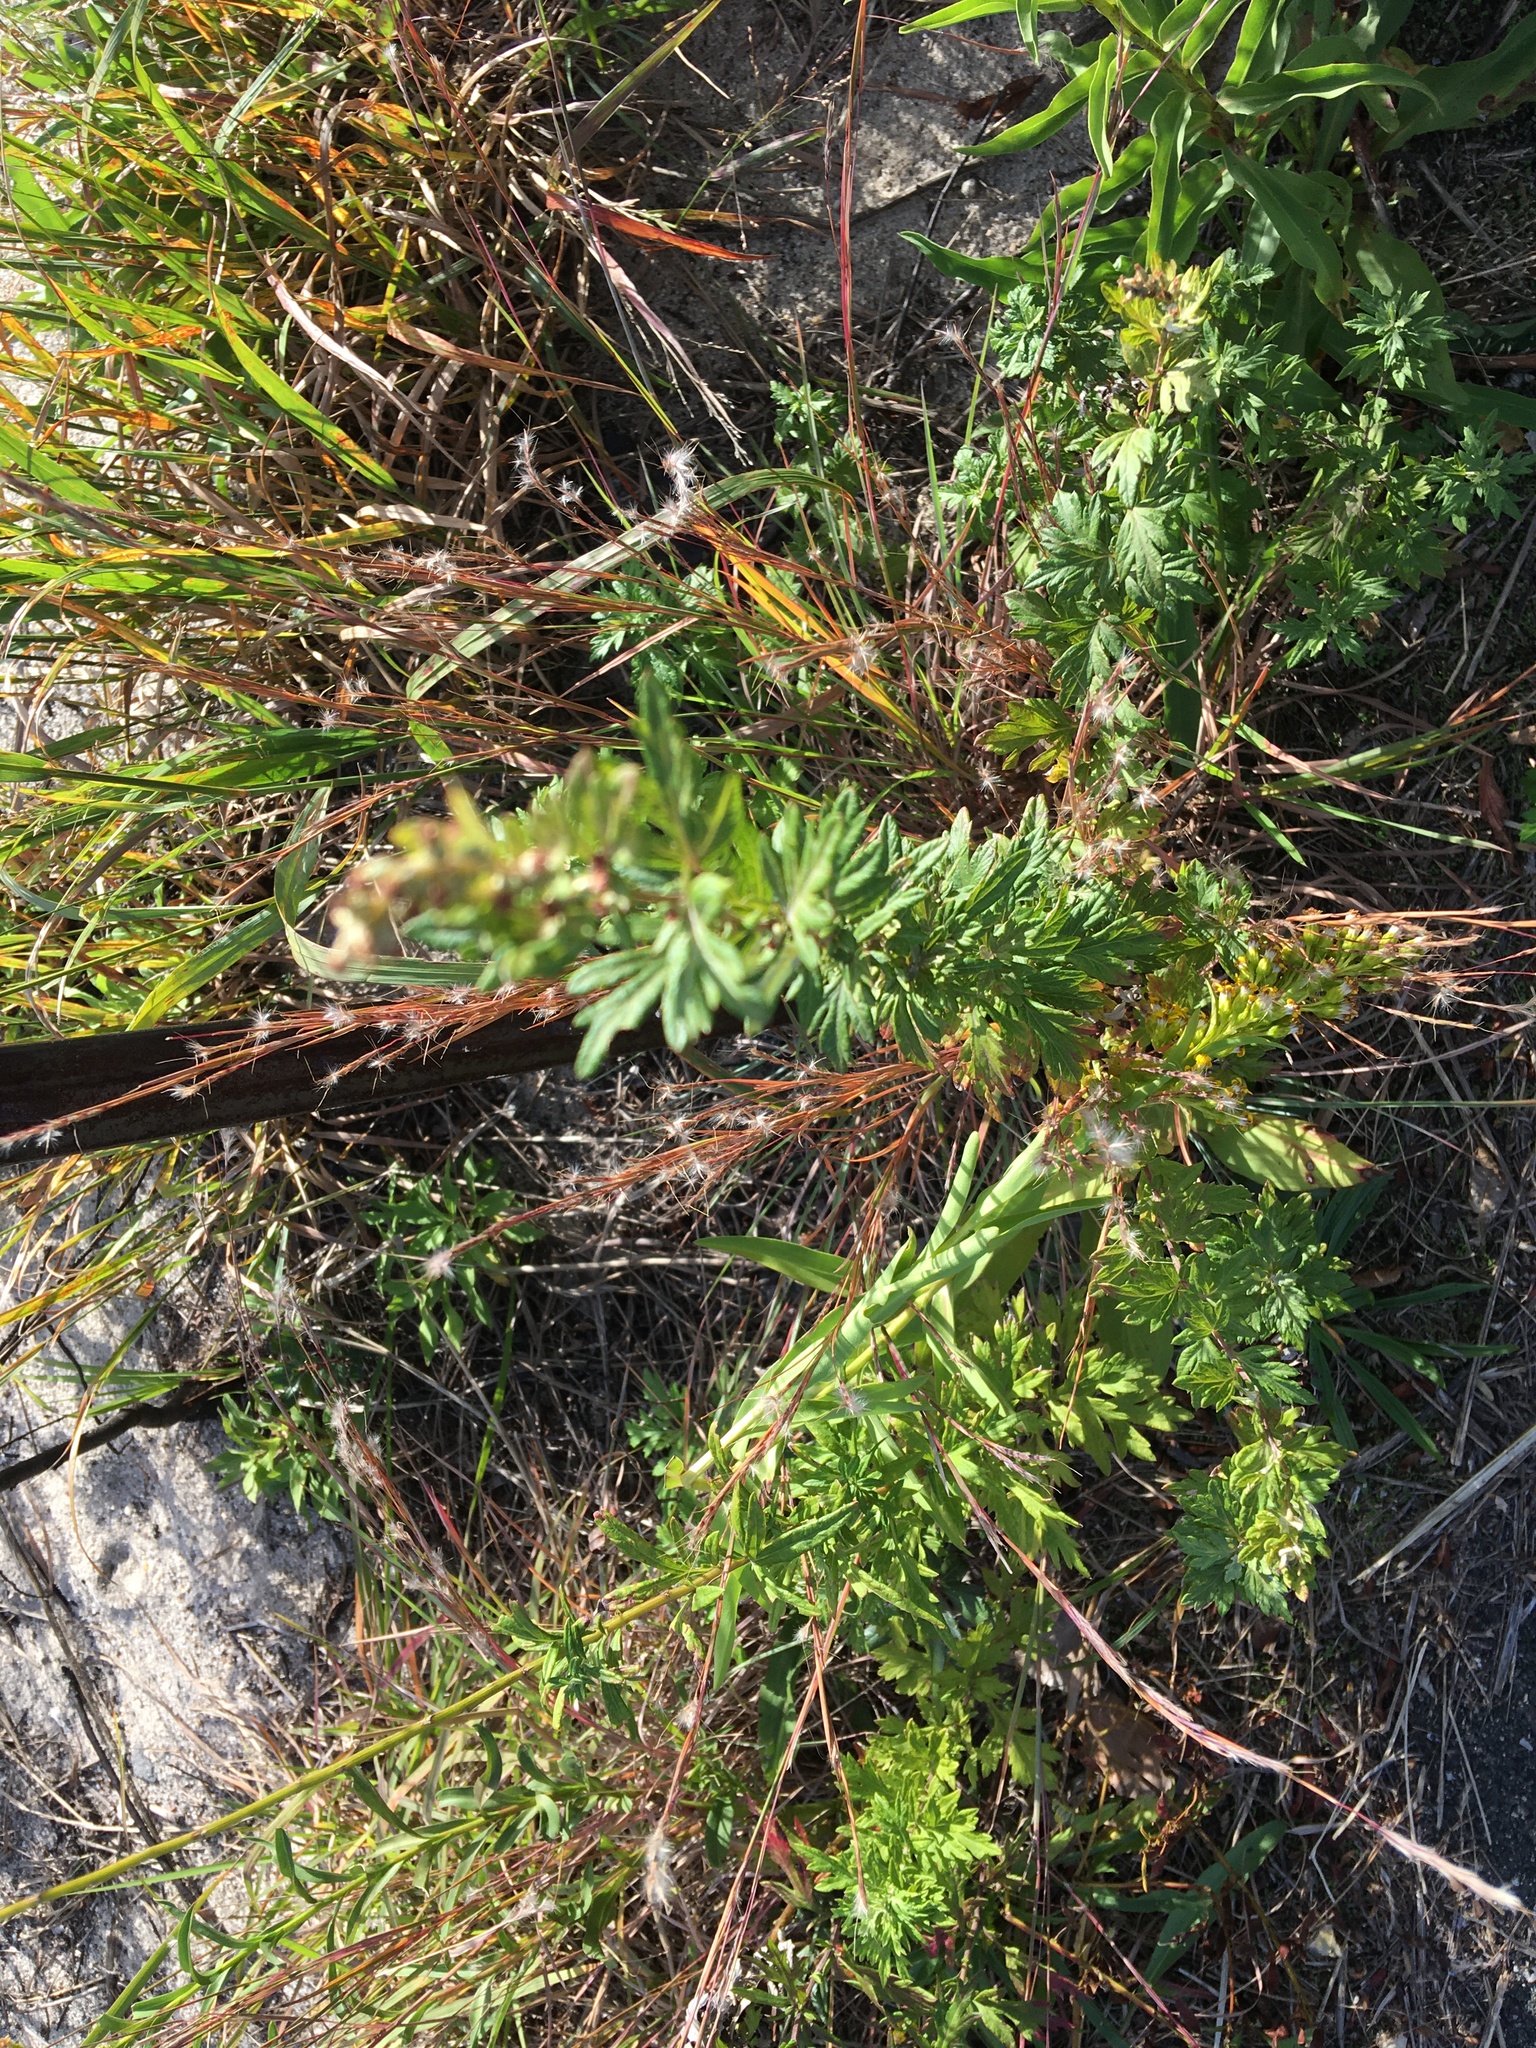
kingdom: Plantae
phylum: Tracheophyta
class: Magnoliopsida
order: Asterales
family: Asteraceae
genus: Artemisia
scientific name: Artemisia vulgaris
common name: Mugwort
